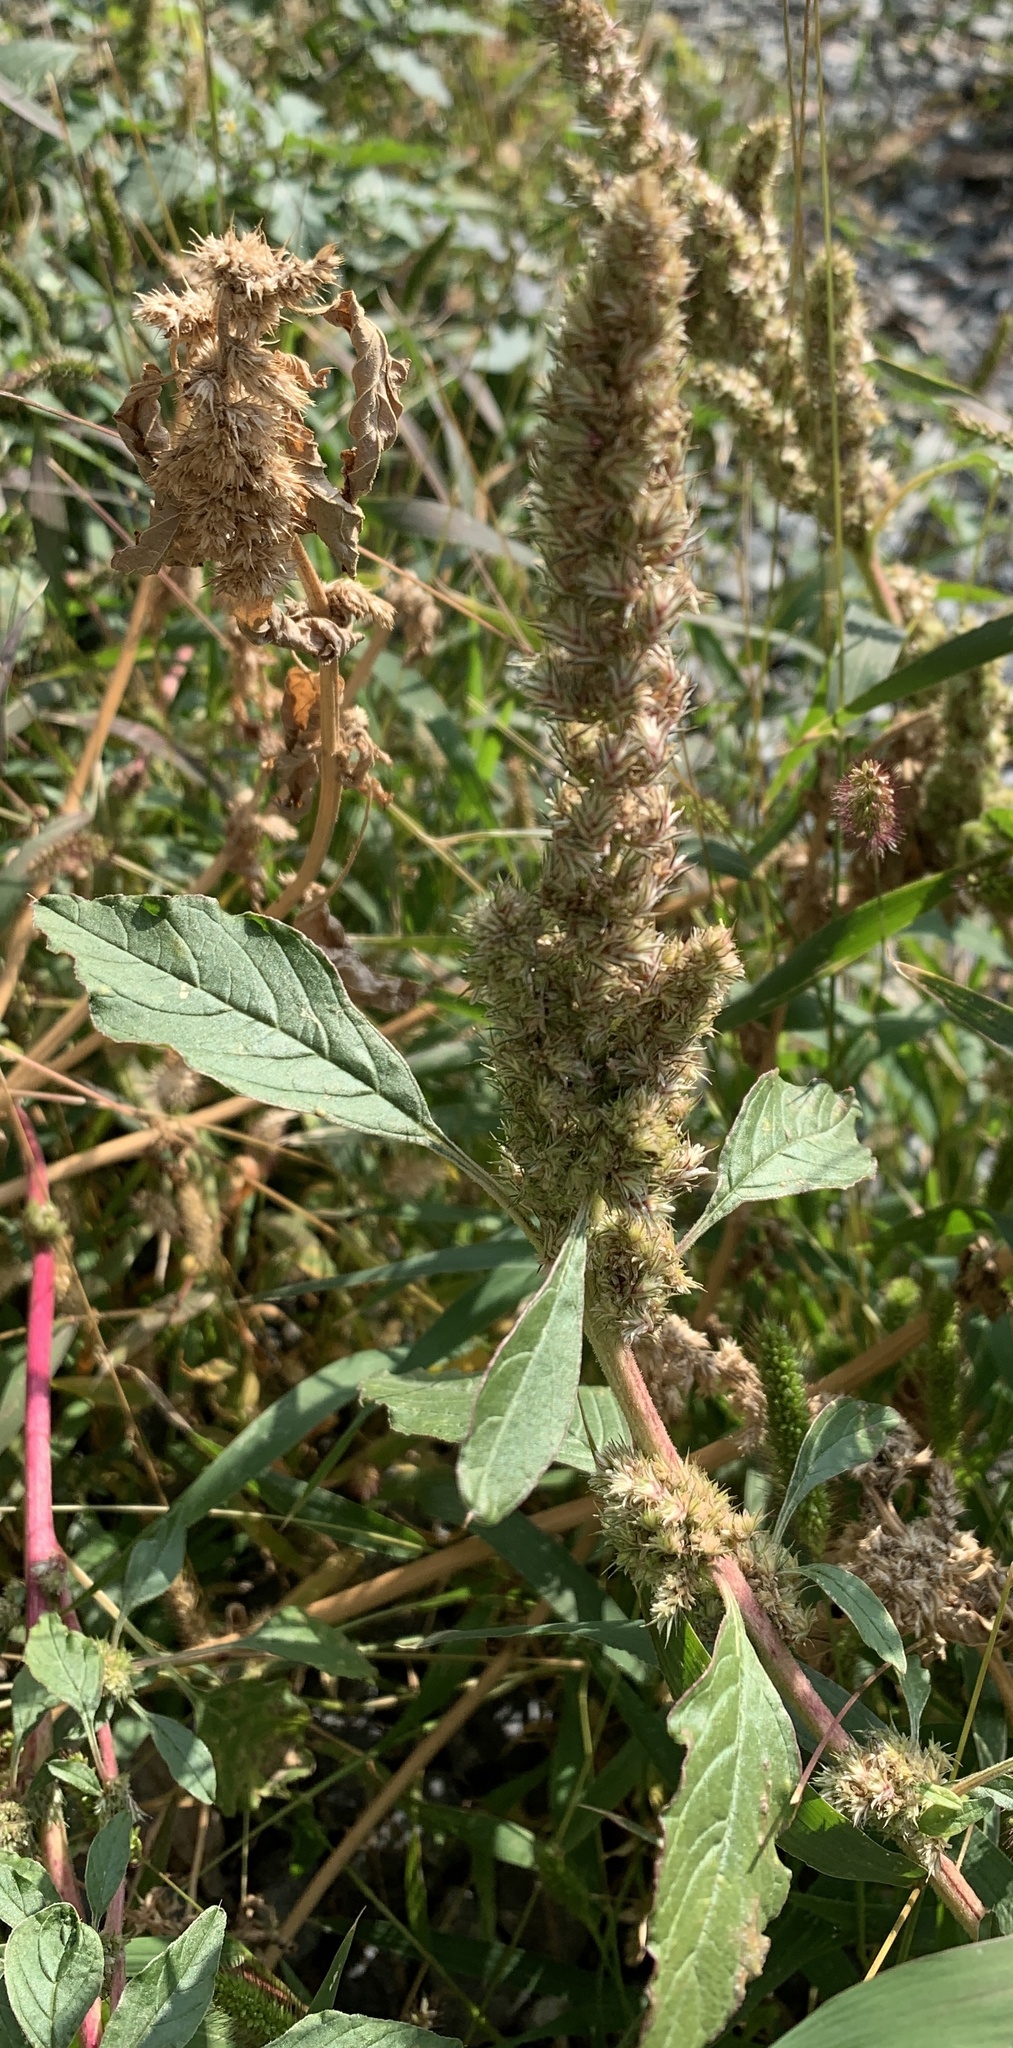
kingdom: Plantae
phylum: Tracheophyta
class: Magnoliopsida
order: Caryophyllales
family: Amaranthaceae
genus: Amaranthus
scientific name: Amaranthus retroflexus
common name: Redroot amaranth
